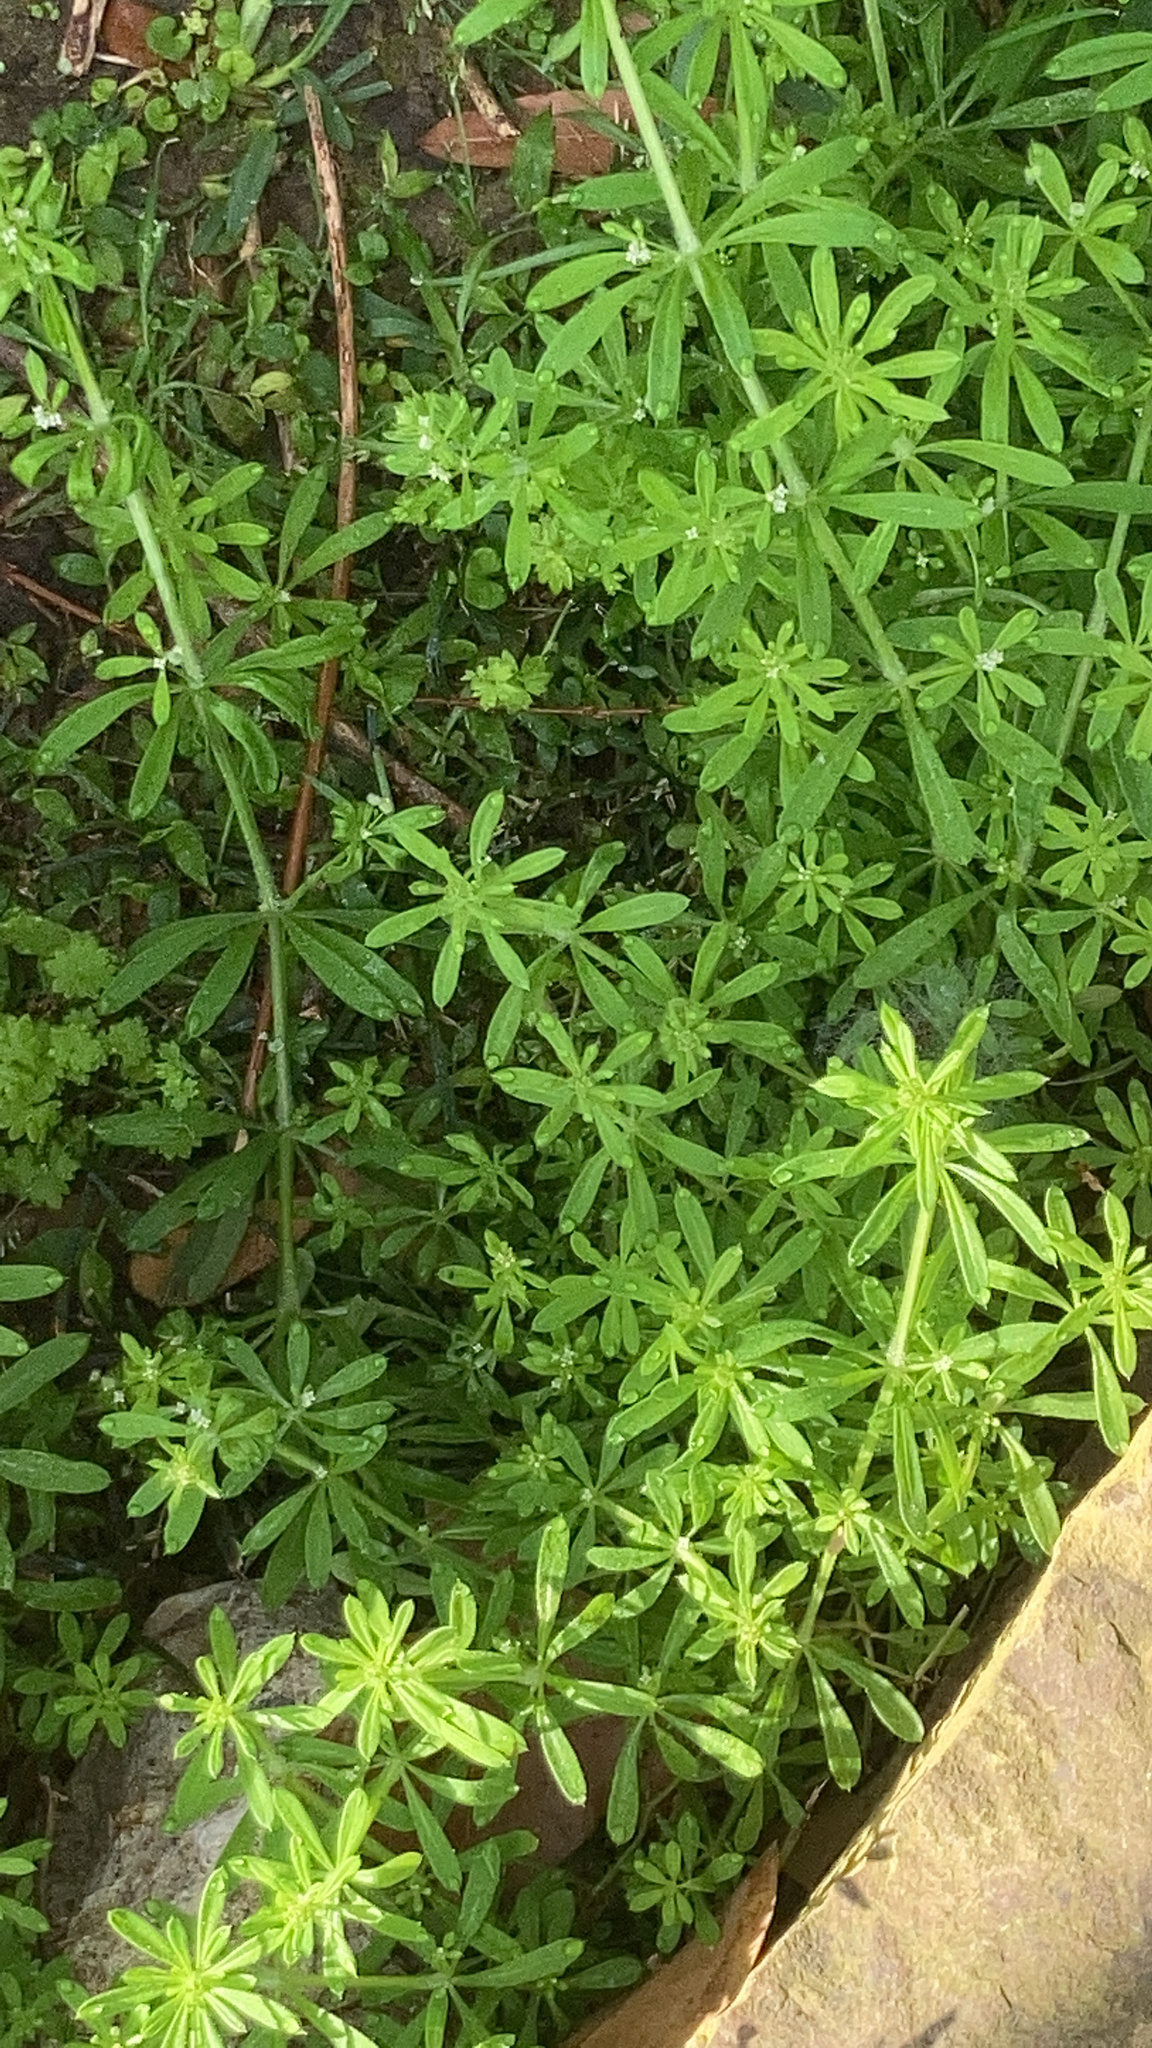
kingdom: Plantae
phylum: Tracheophyta
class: Magnoliopsida
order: Gentianales
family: Rubiaceae
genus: Galium
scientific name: Galium aparine
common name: Cleavers
